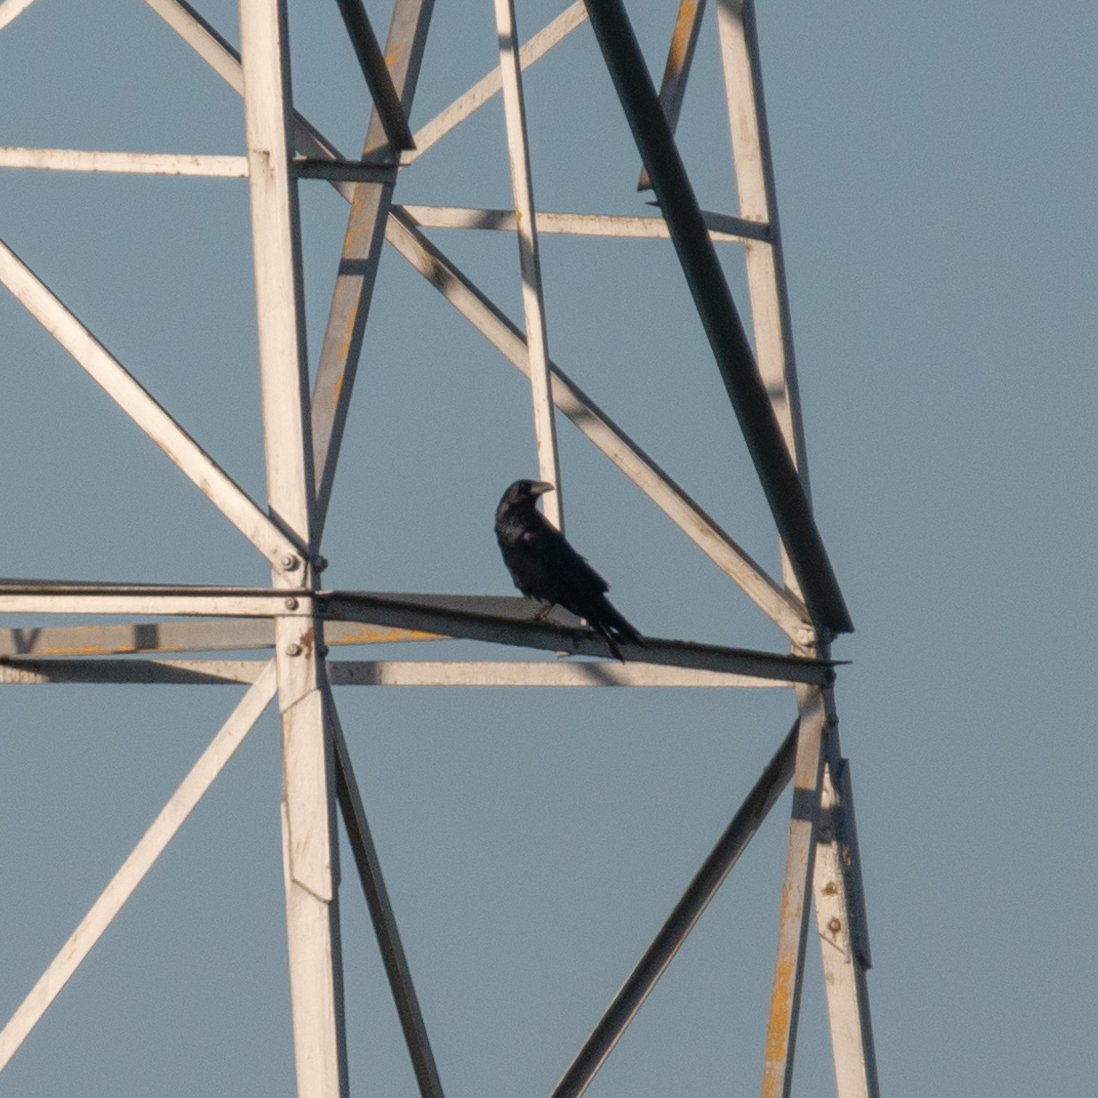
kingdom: Animalia
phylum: Chordata
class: Aves
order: Passeriformes
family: Corvidae
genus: Corvus
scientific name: Corvus corax
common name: Common raven
